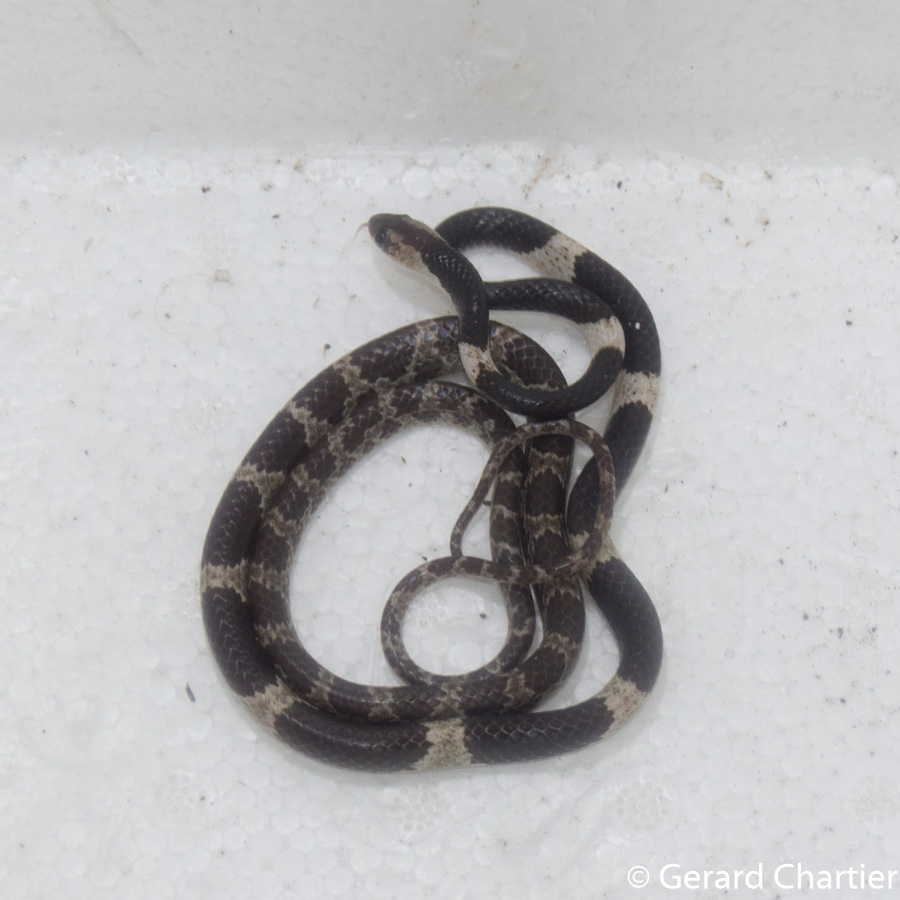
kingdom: Animalia
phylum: Chordata
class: Squamata
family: Colubridae
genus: Lycodon
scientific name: Lycodon davisonii
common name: Blanford's bridal snake
